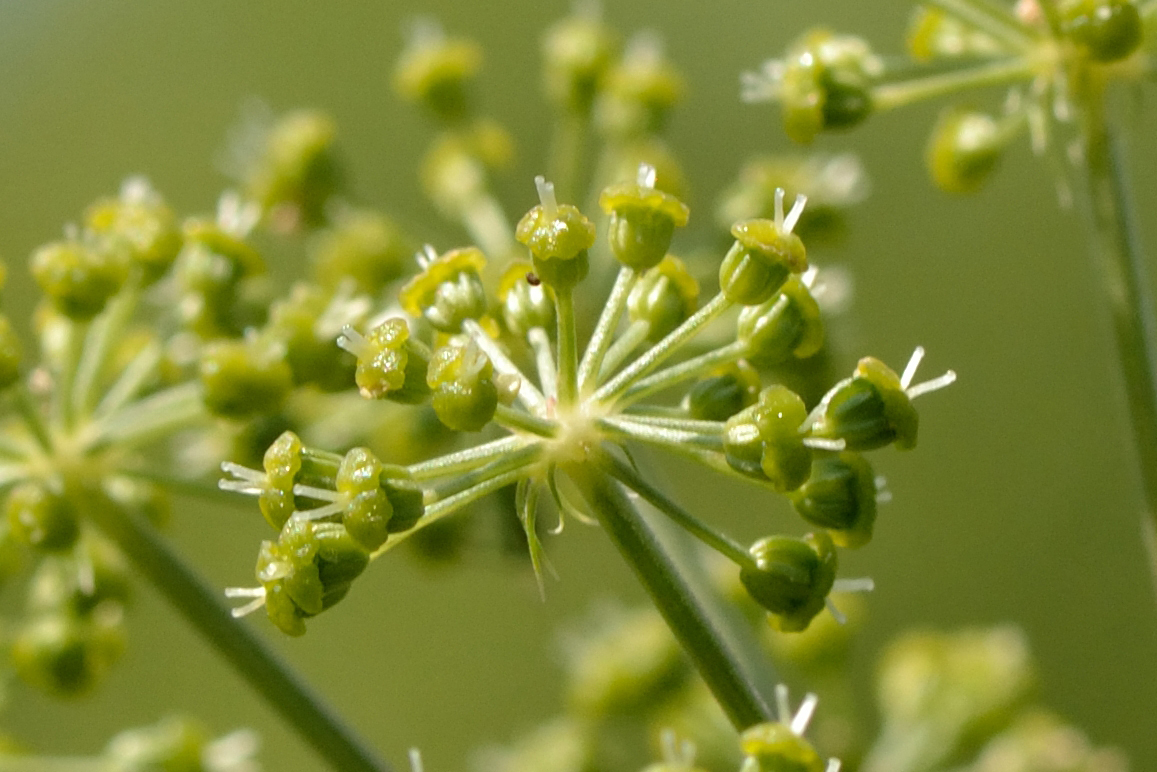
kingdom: Plantae
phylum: Tracheophyta
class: Magnoliopsida
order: Apiales
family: Apiaceae
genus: Angelica
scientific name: Angelica archangelica
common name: Garden angelica
